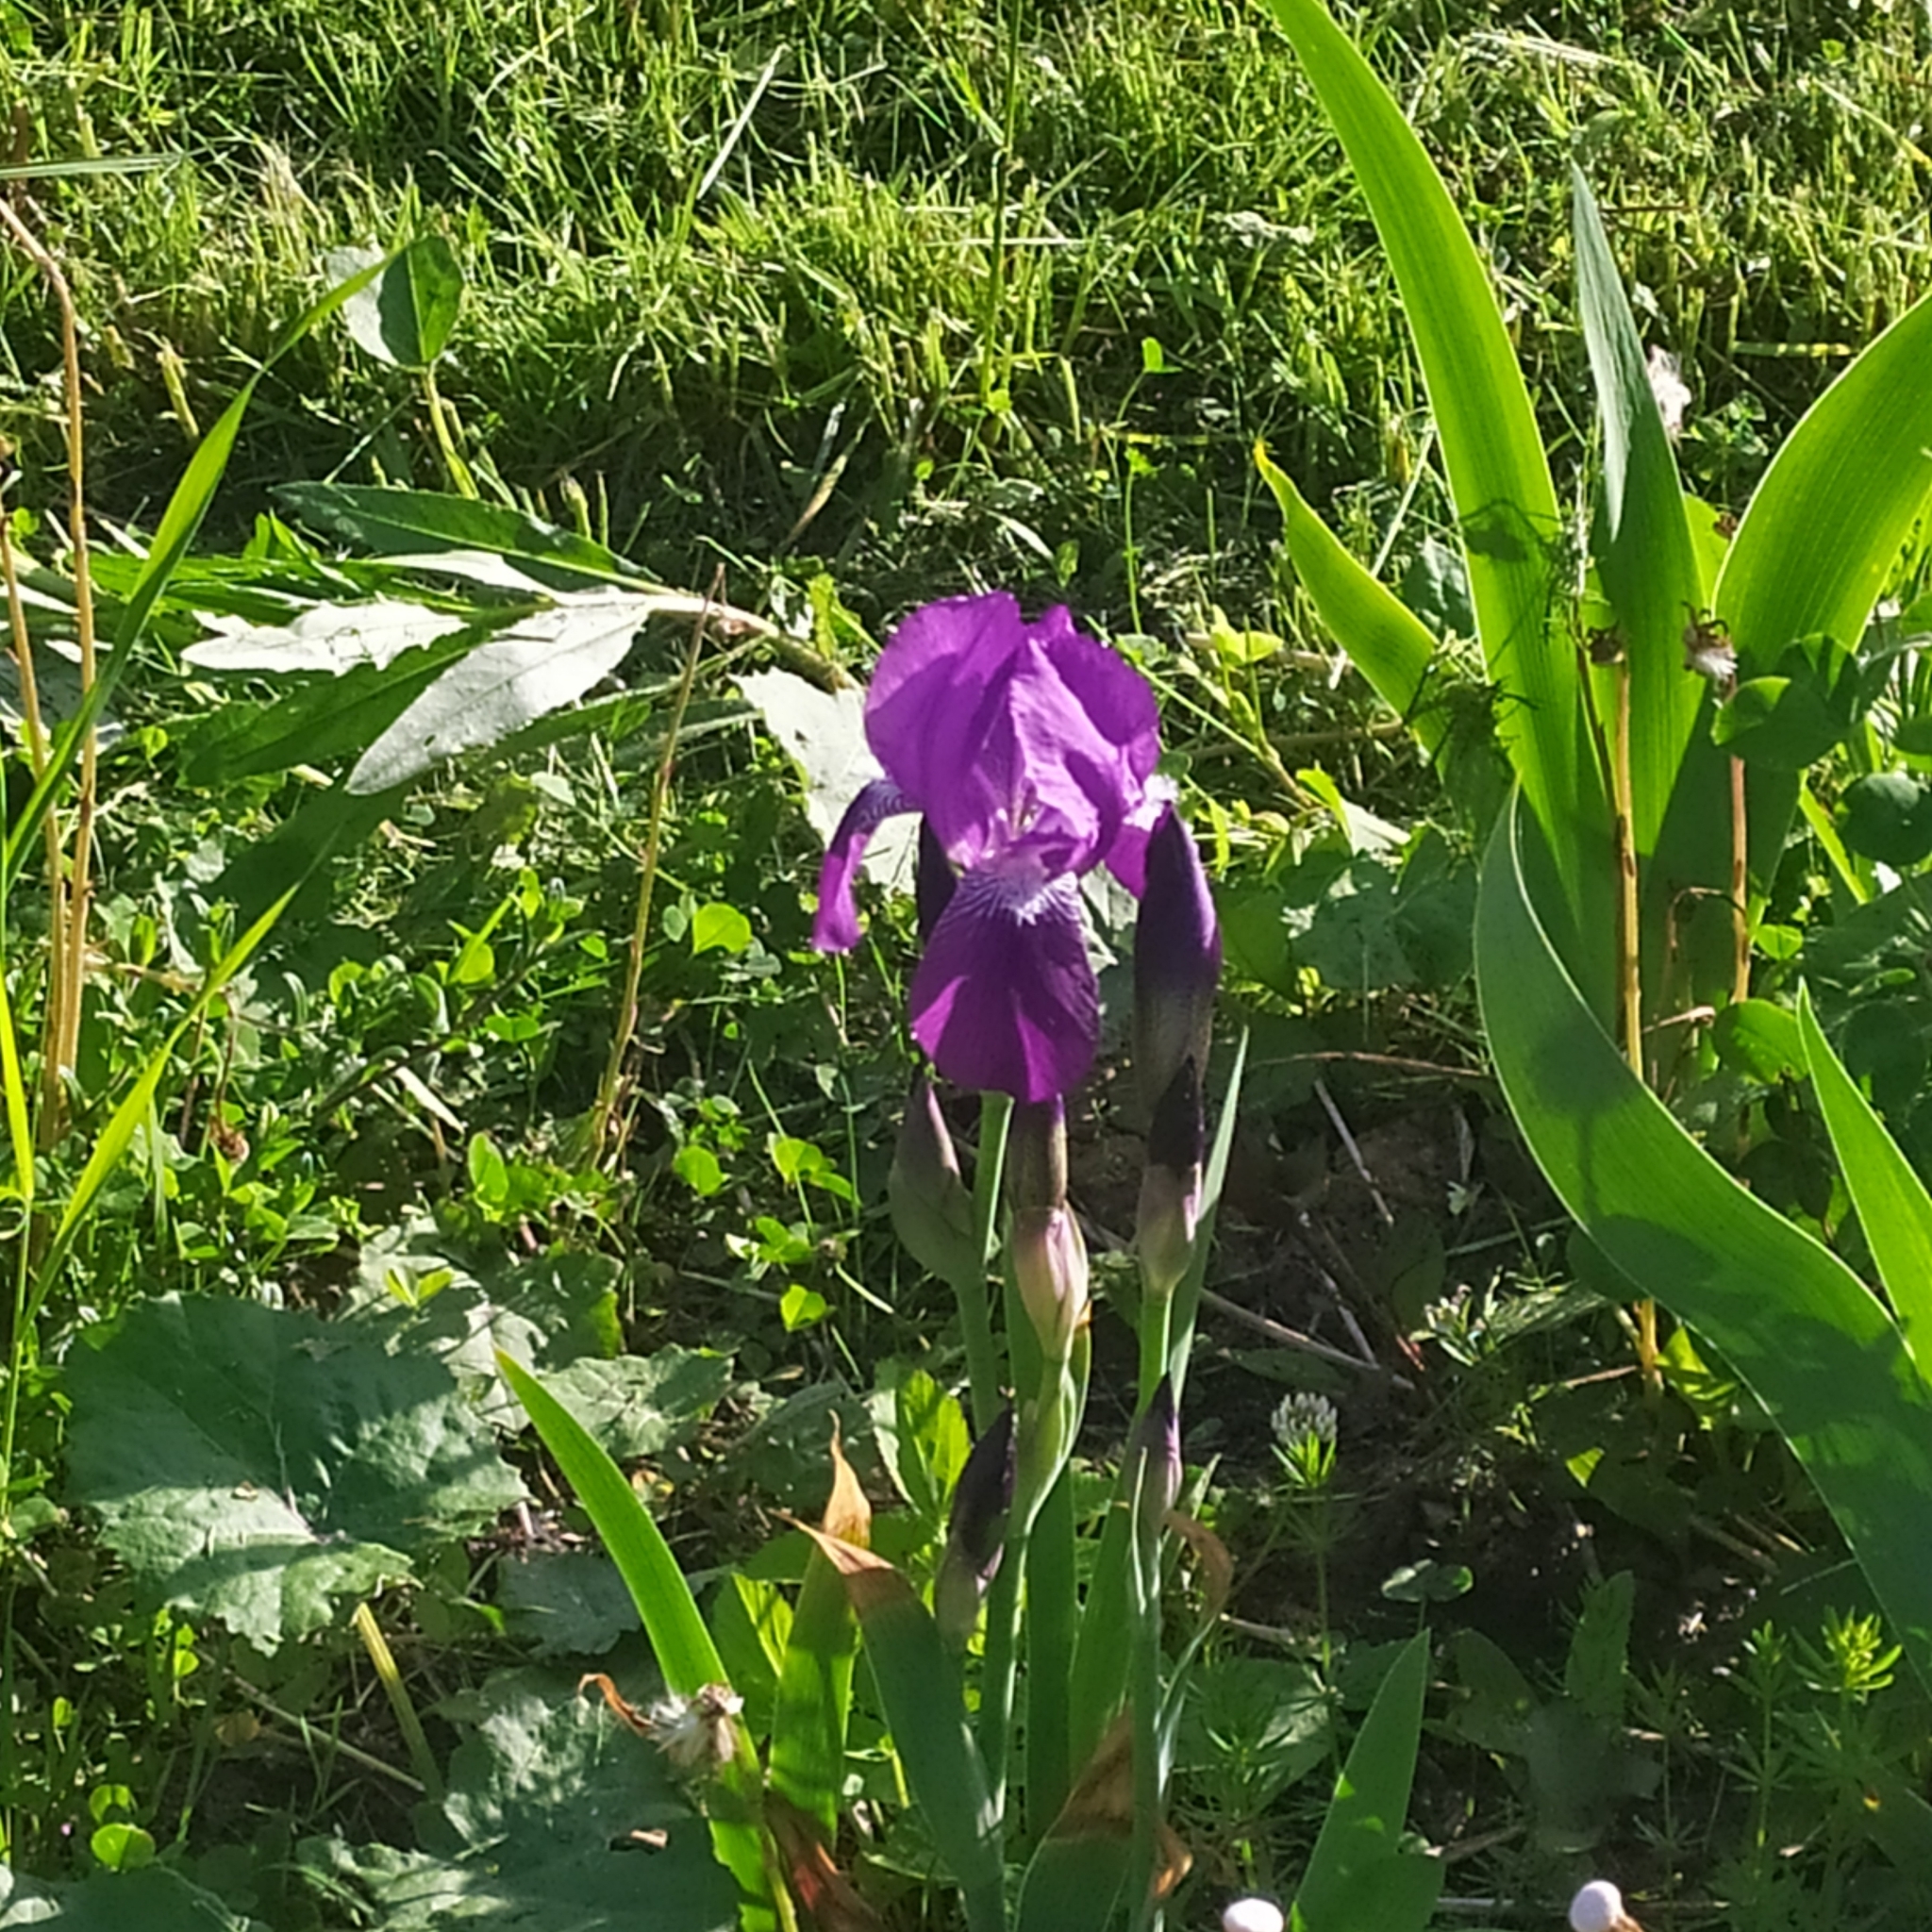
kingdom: Plantae
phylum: Tracheophyta
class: Liliopsida
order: Asparagales
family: Iridaceae
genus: Iris
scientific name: Iris germanica
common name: German iris
